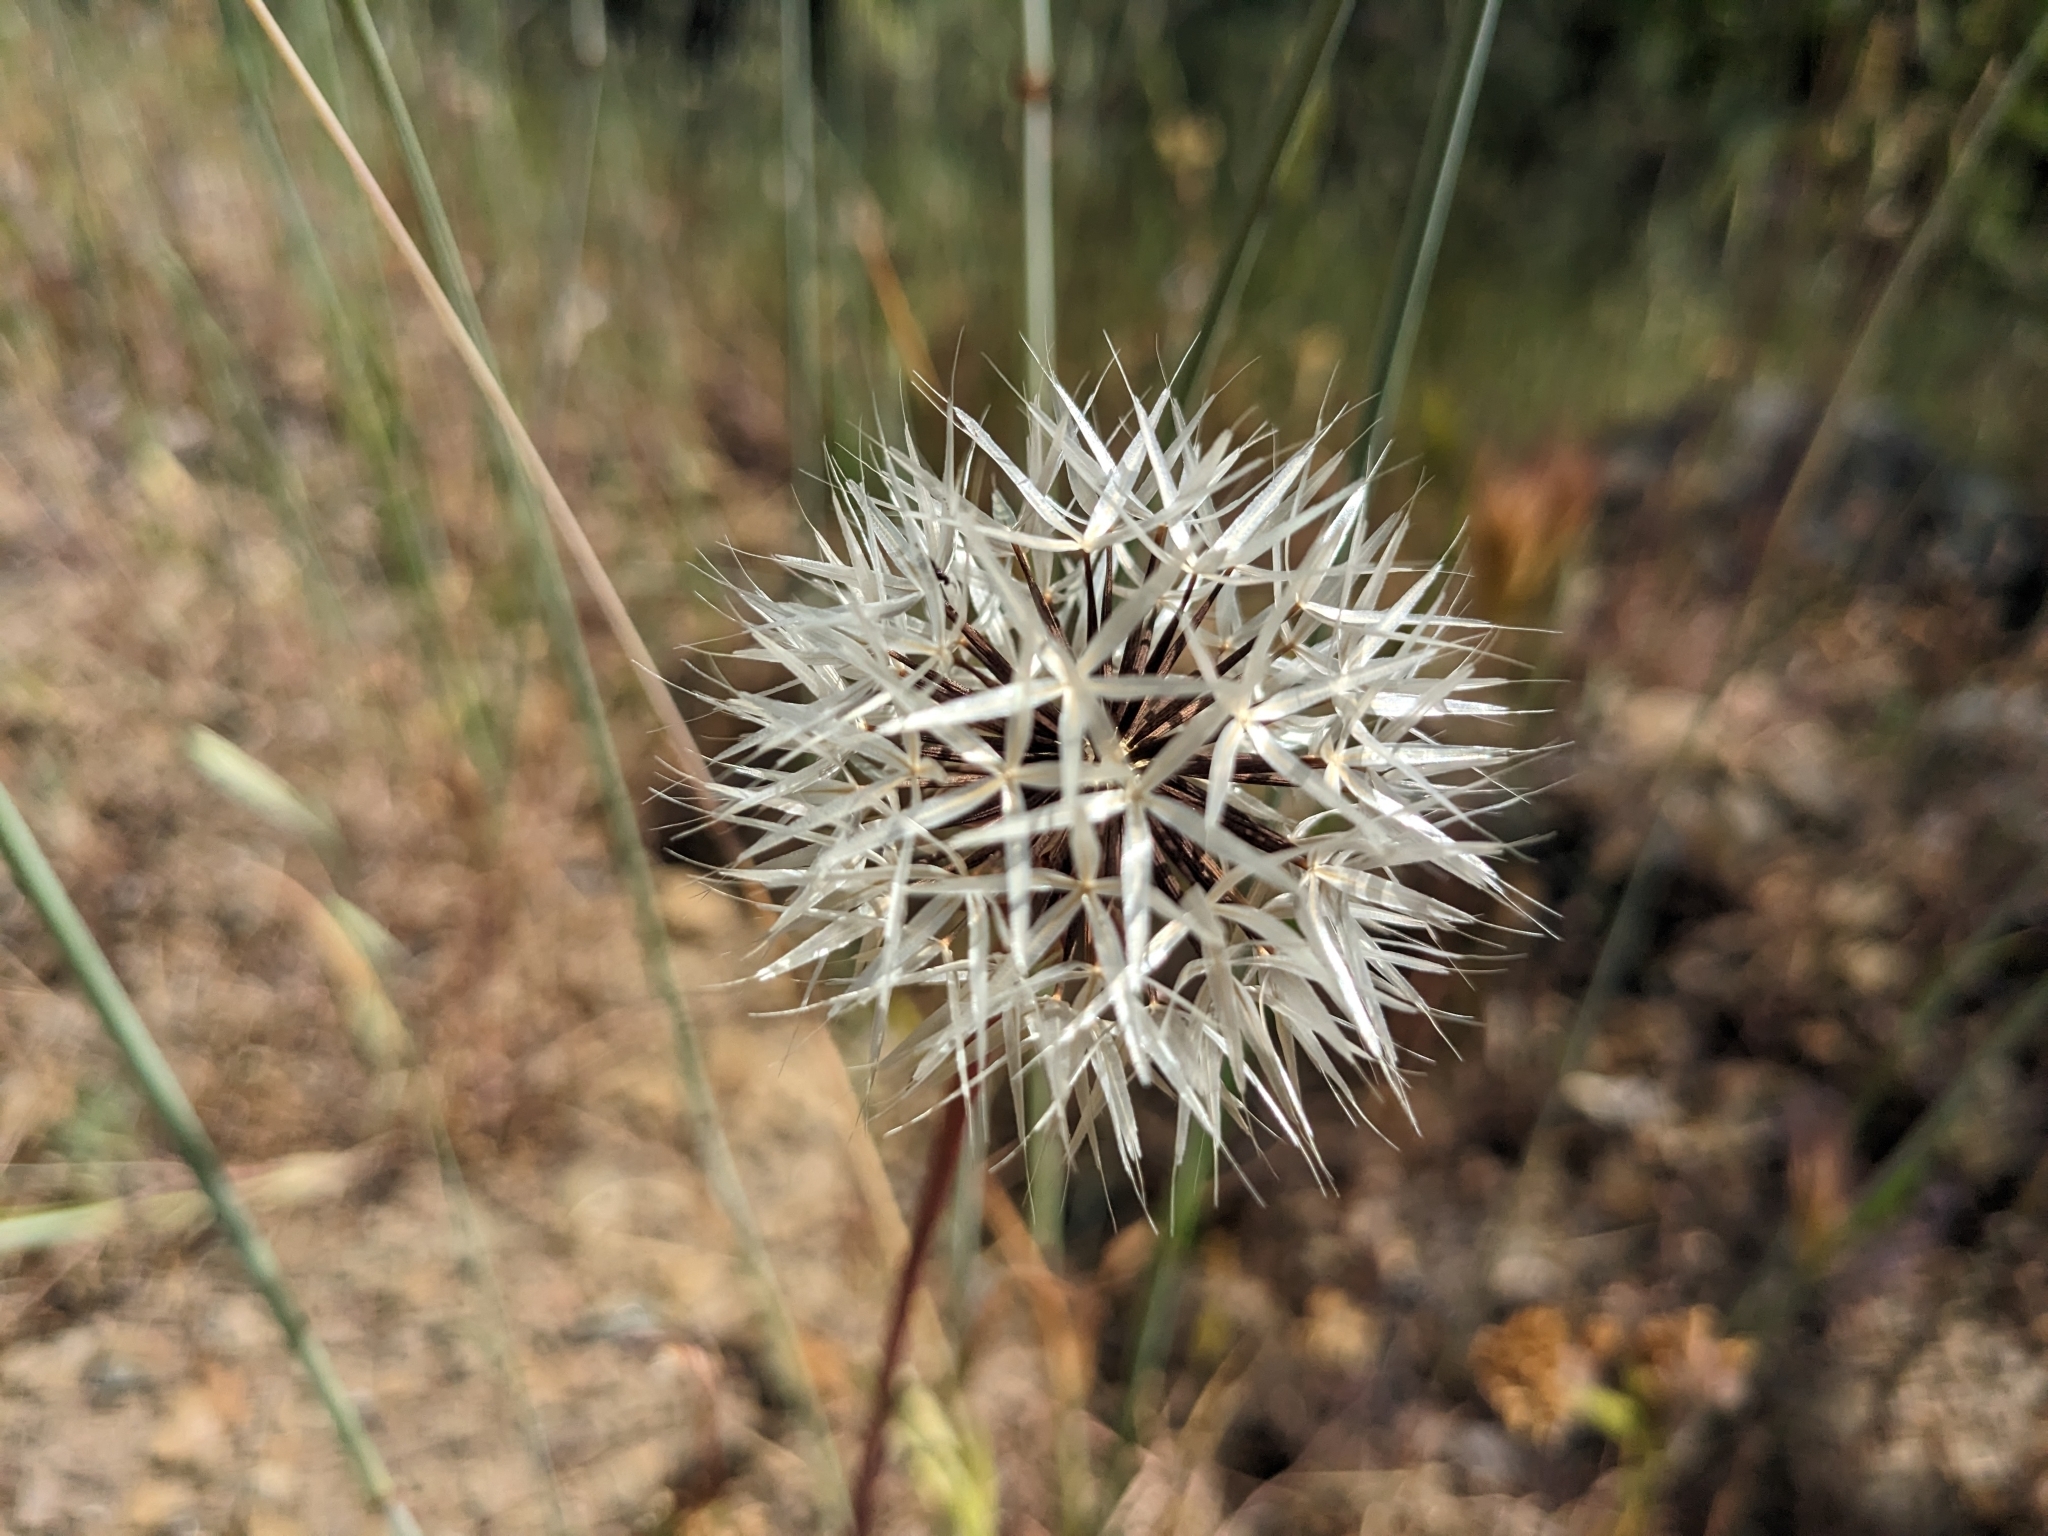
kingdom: Plantae
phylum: Tracheophyta
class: Magnoliopsida
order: Asterales
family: Asteraceae
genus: Microseris
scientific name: Microseris lindleyi
